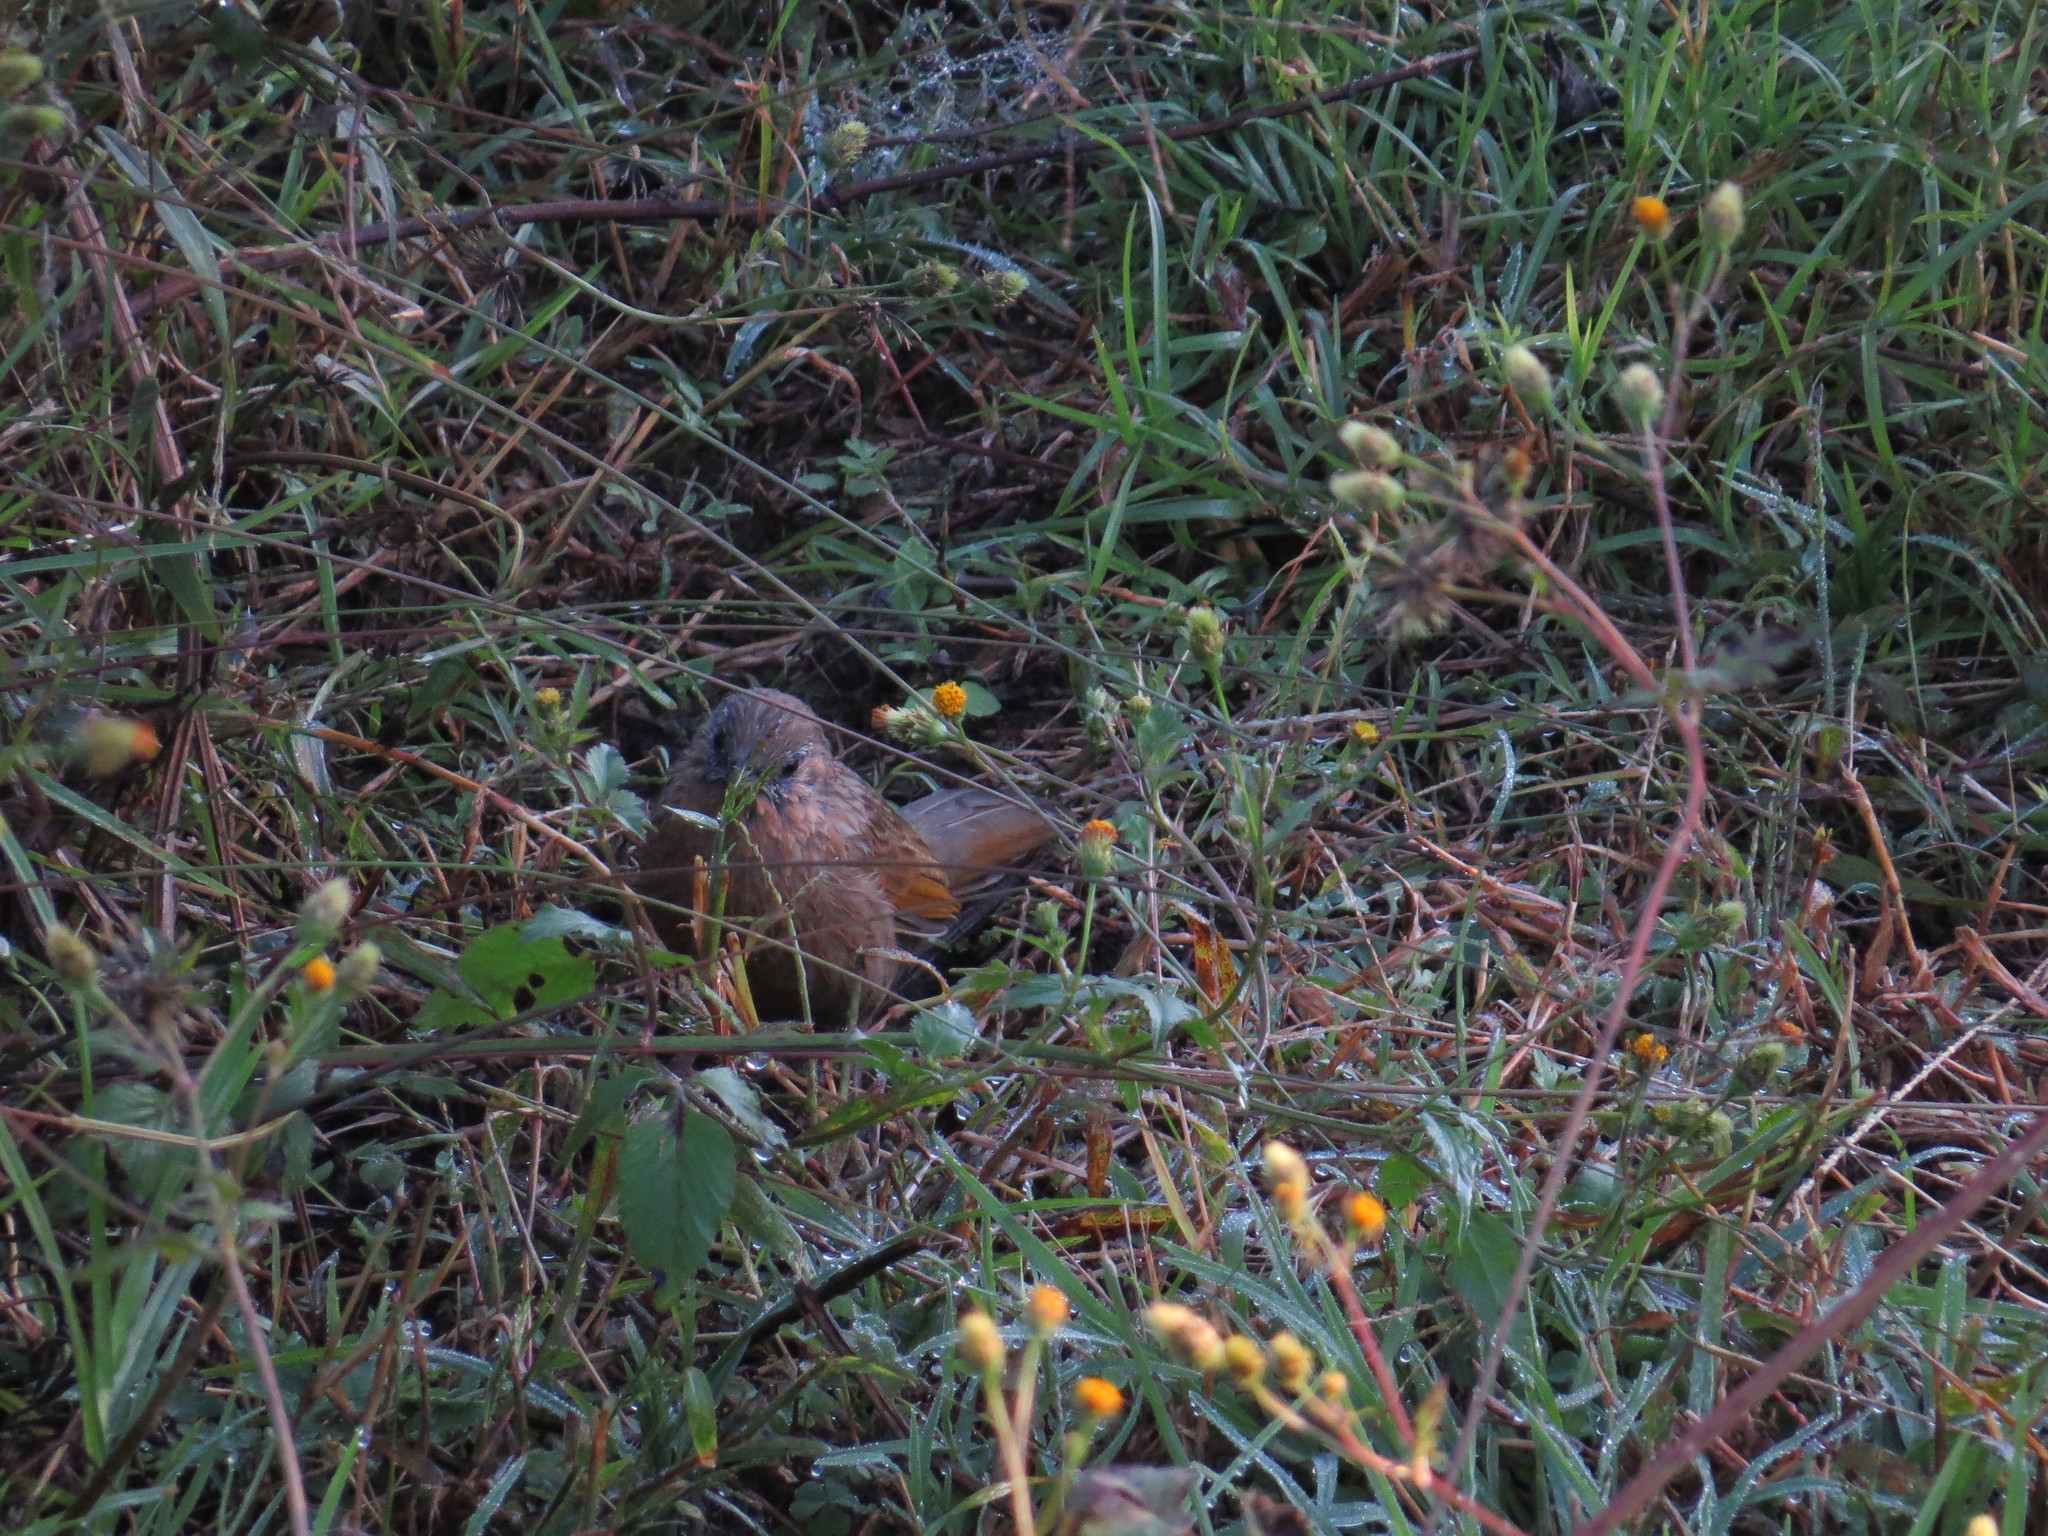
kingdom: Animalia
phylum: Chordata
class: Aves
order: Passeriformes
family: Leiothrichidae
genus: Trochalopteron
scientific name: Trochalopteron lineatum
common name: Streaked laughingthrush
